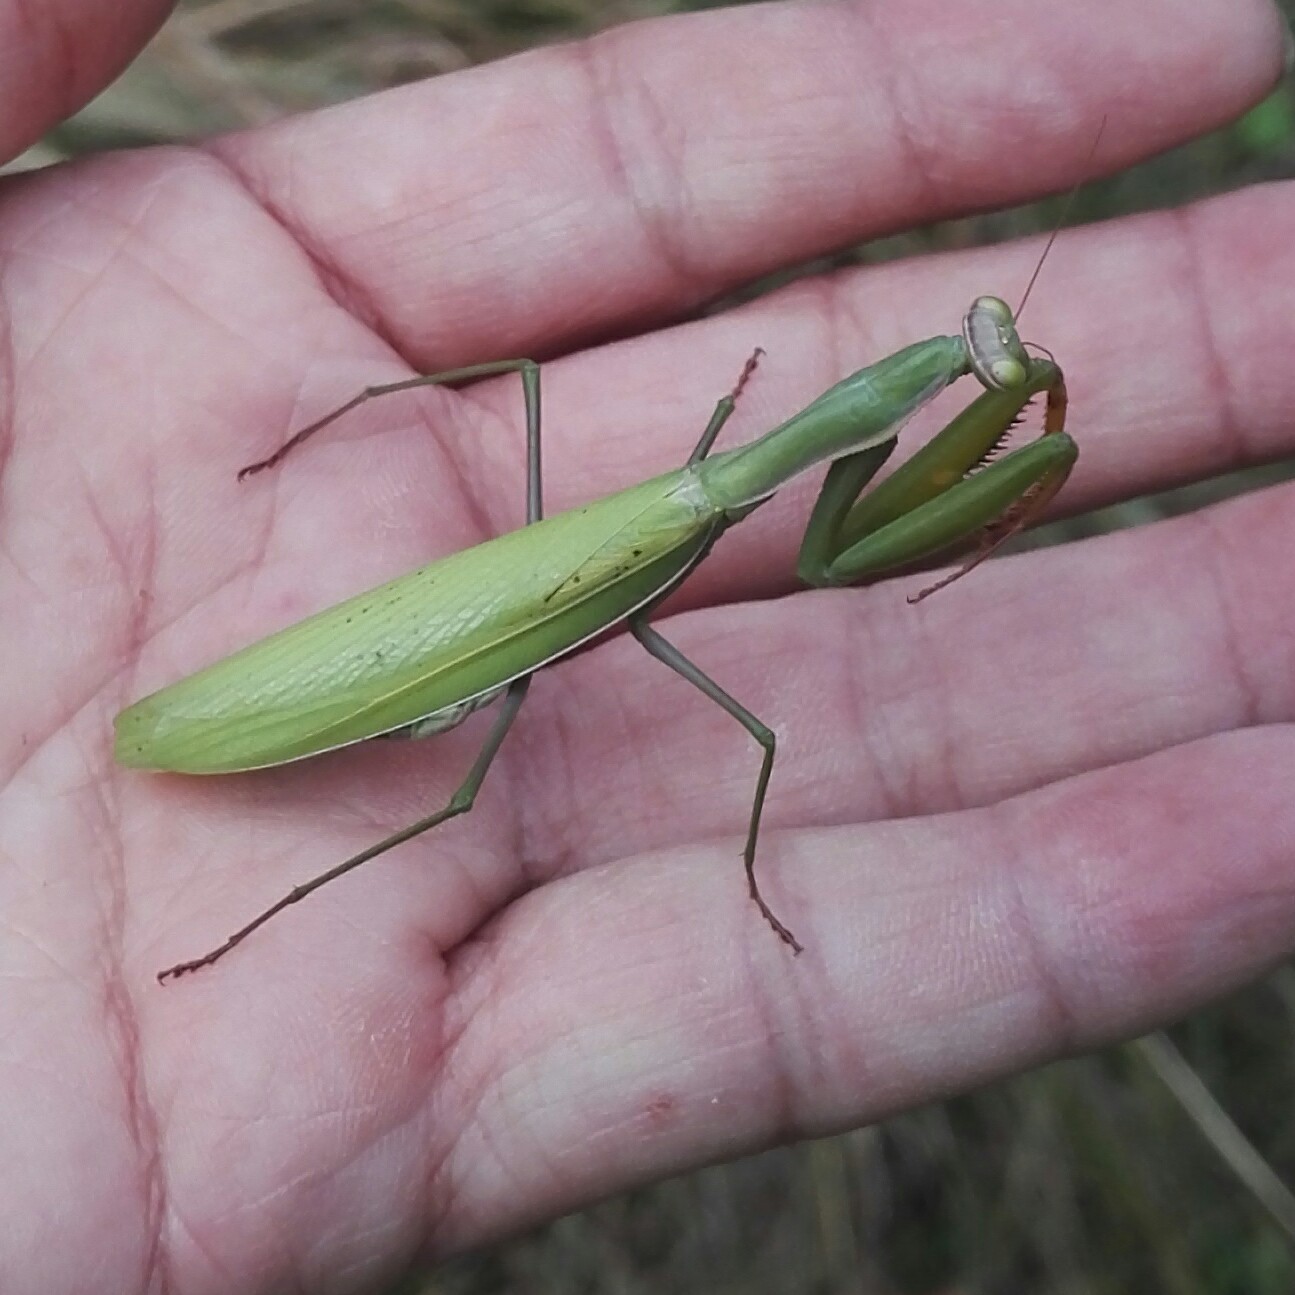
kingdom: Animalia
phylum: Arthropoda
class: Insecta
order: Mantodea
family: Mantidae
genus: Mantis
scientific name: Mantis religiosa
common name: Praying mantis
